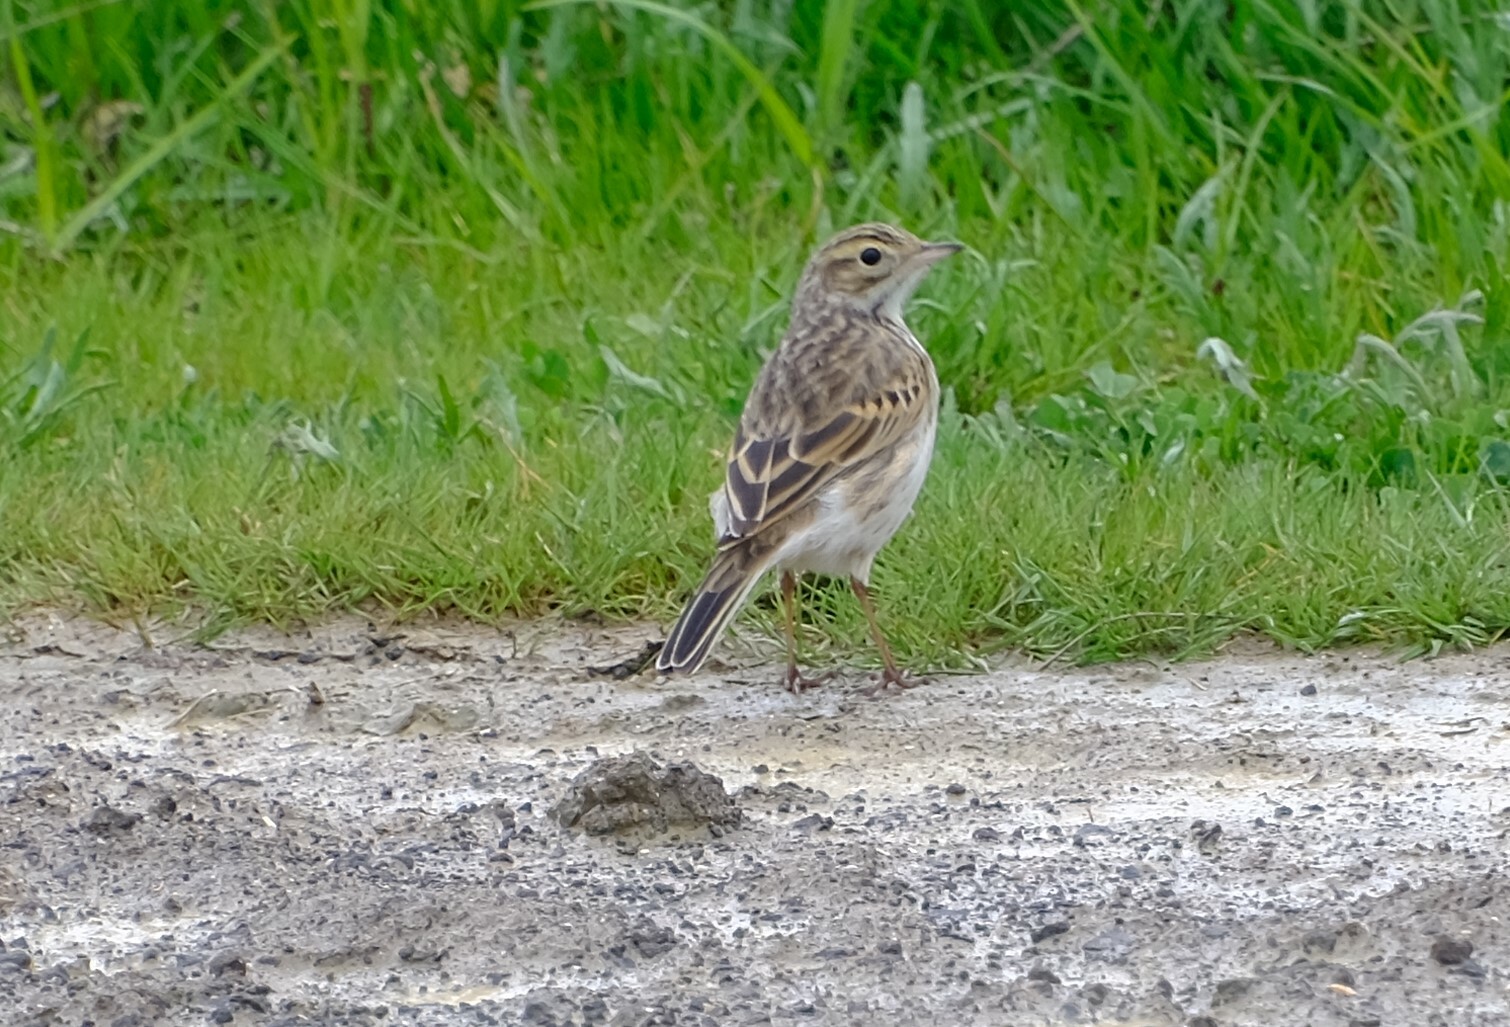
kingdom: Animalia
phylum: Chordata
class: Aves
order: Passeriformes
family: Motacillidae
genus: Anthus
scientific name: Anthus australis
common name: Australian pipit
